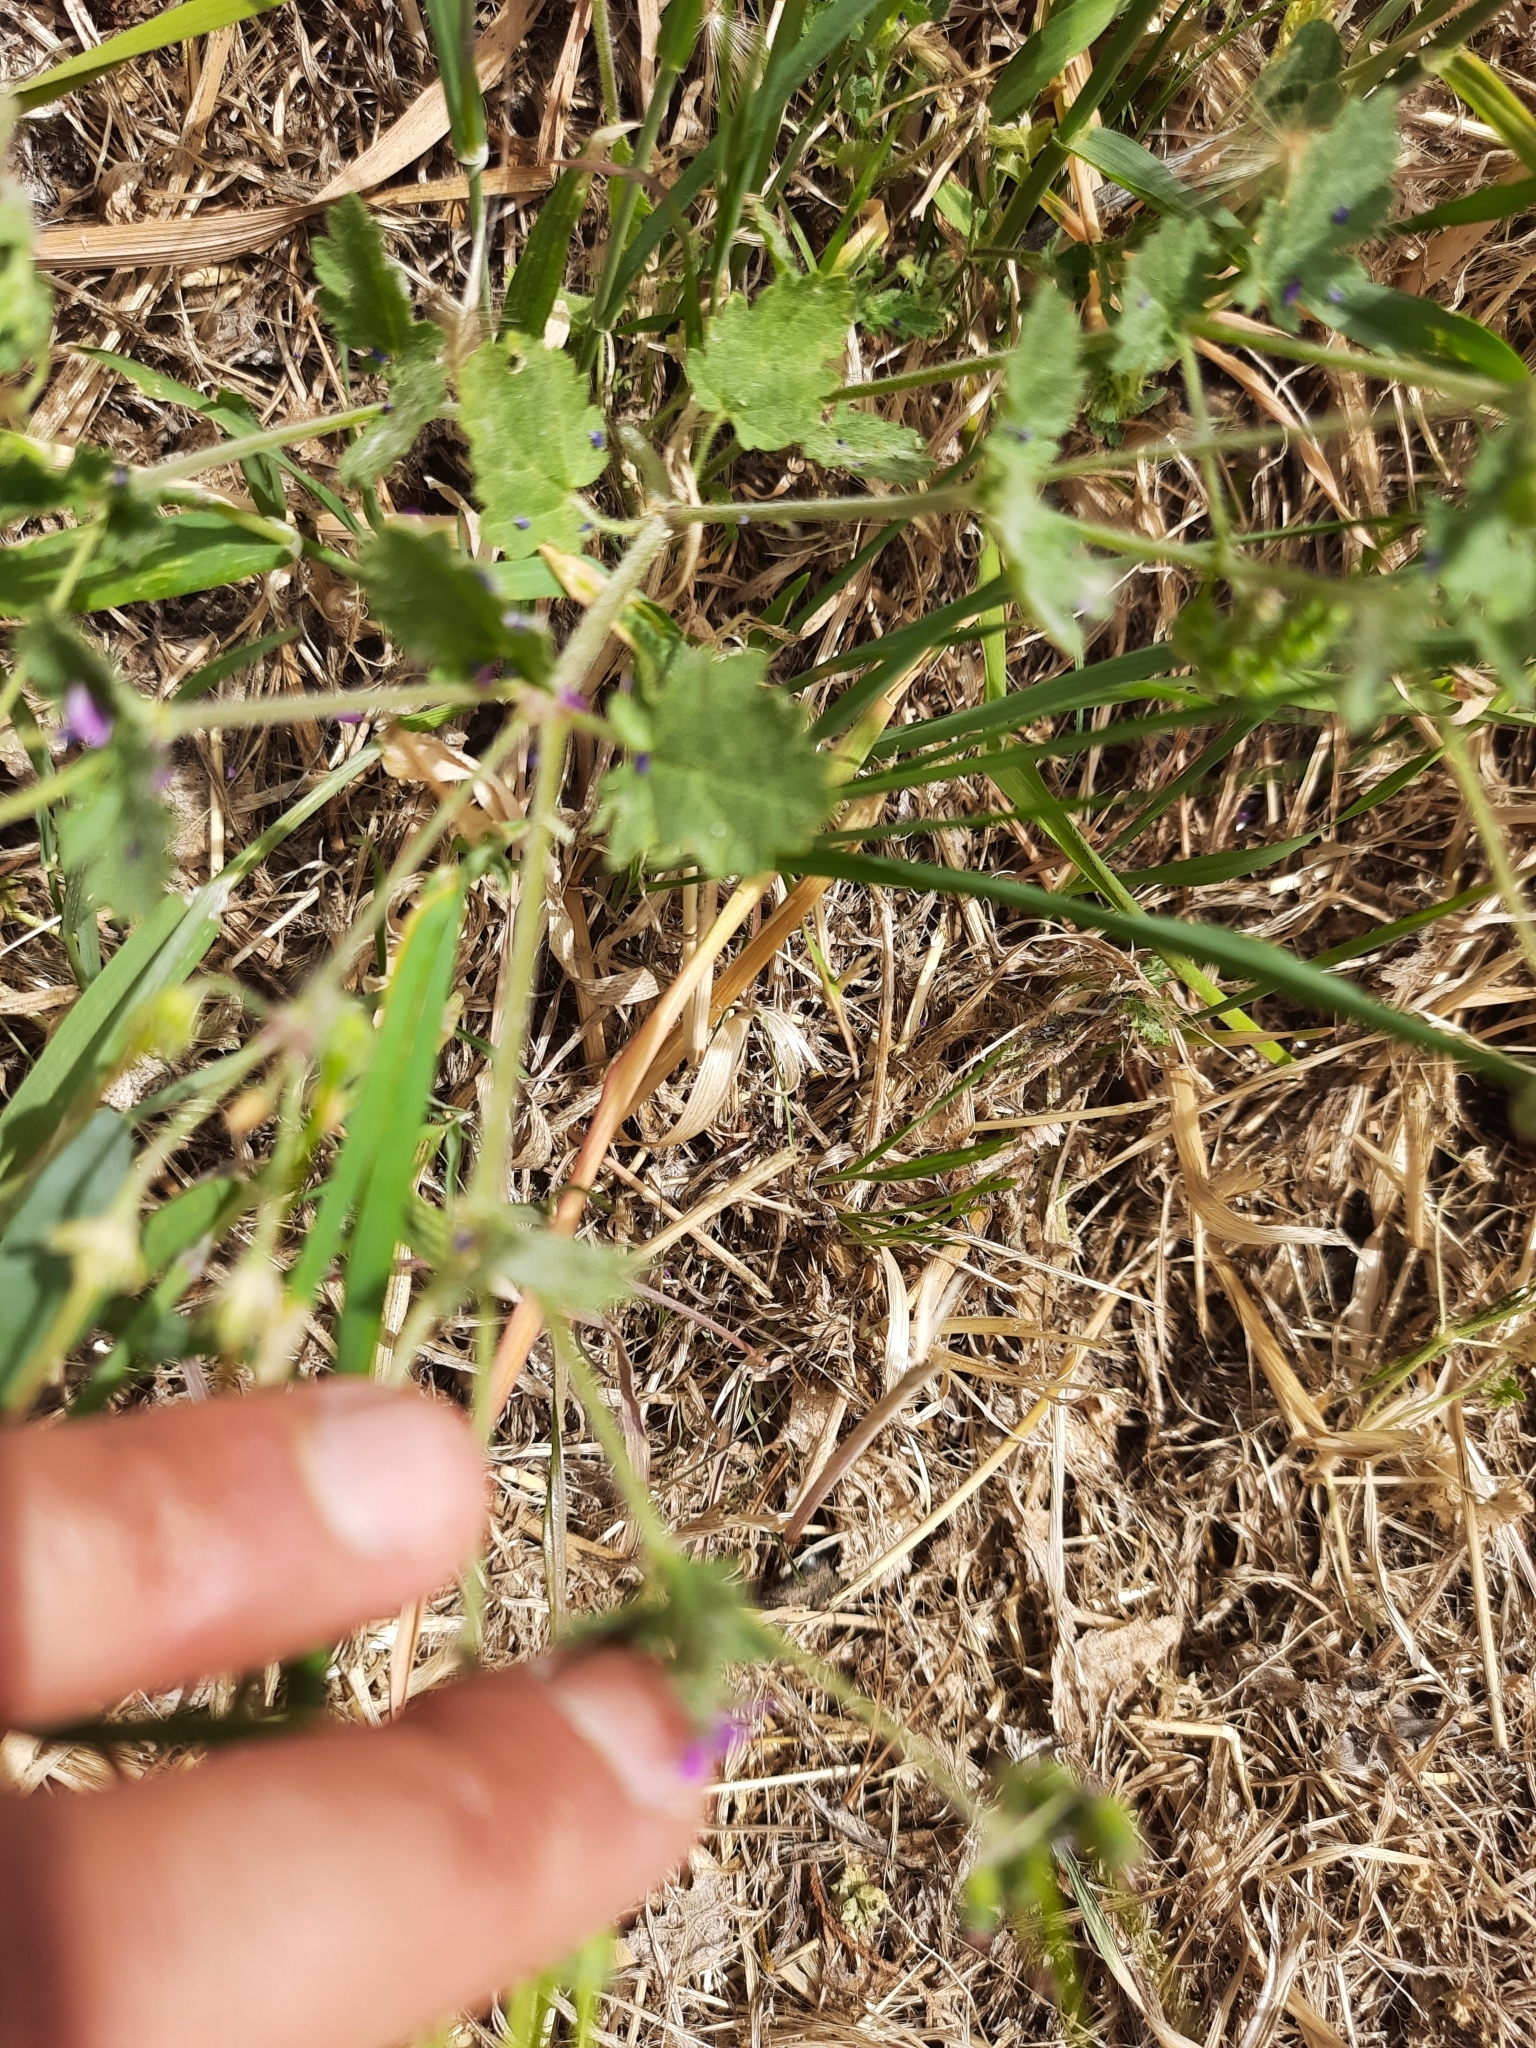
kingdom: Plantae
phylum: Tracheophyta
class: Magnoliopsida
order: Geraniales
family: Geraniaceae
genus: Erodium
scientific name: Erodium malacoides
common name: Soft stork's-bill
